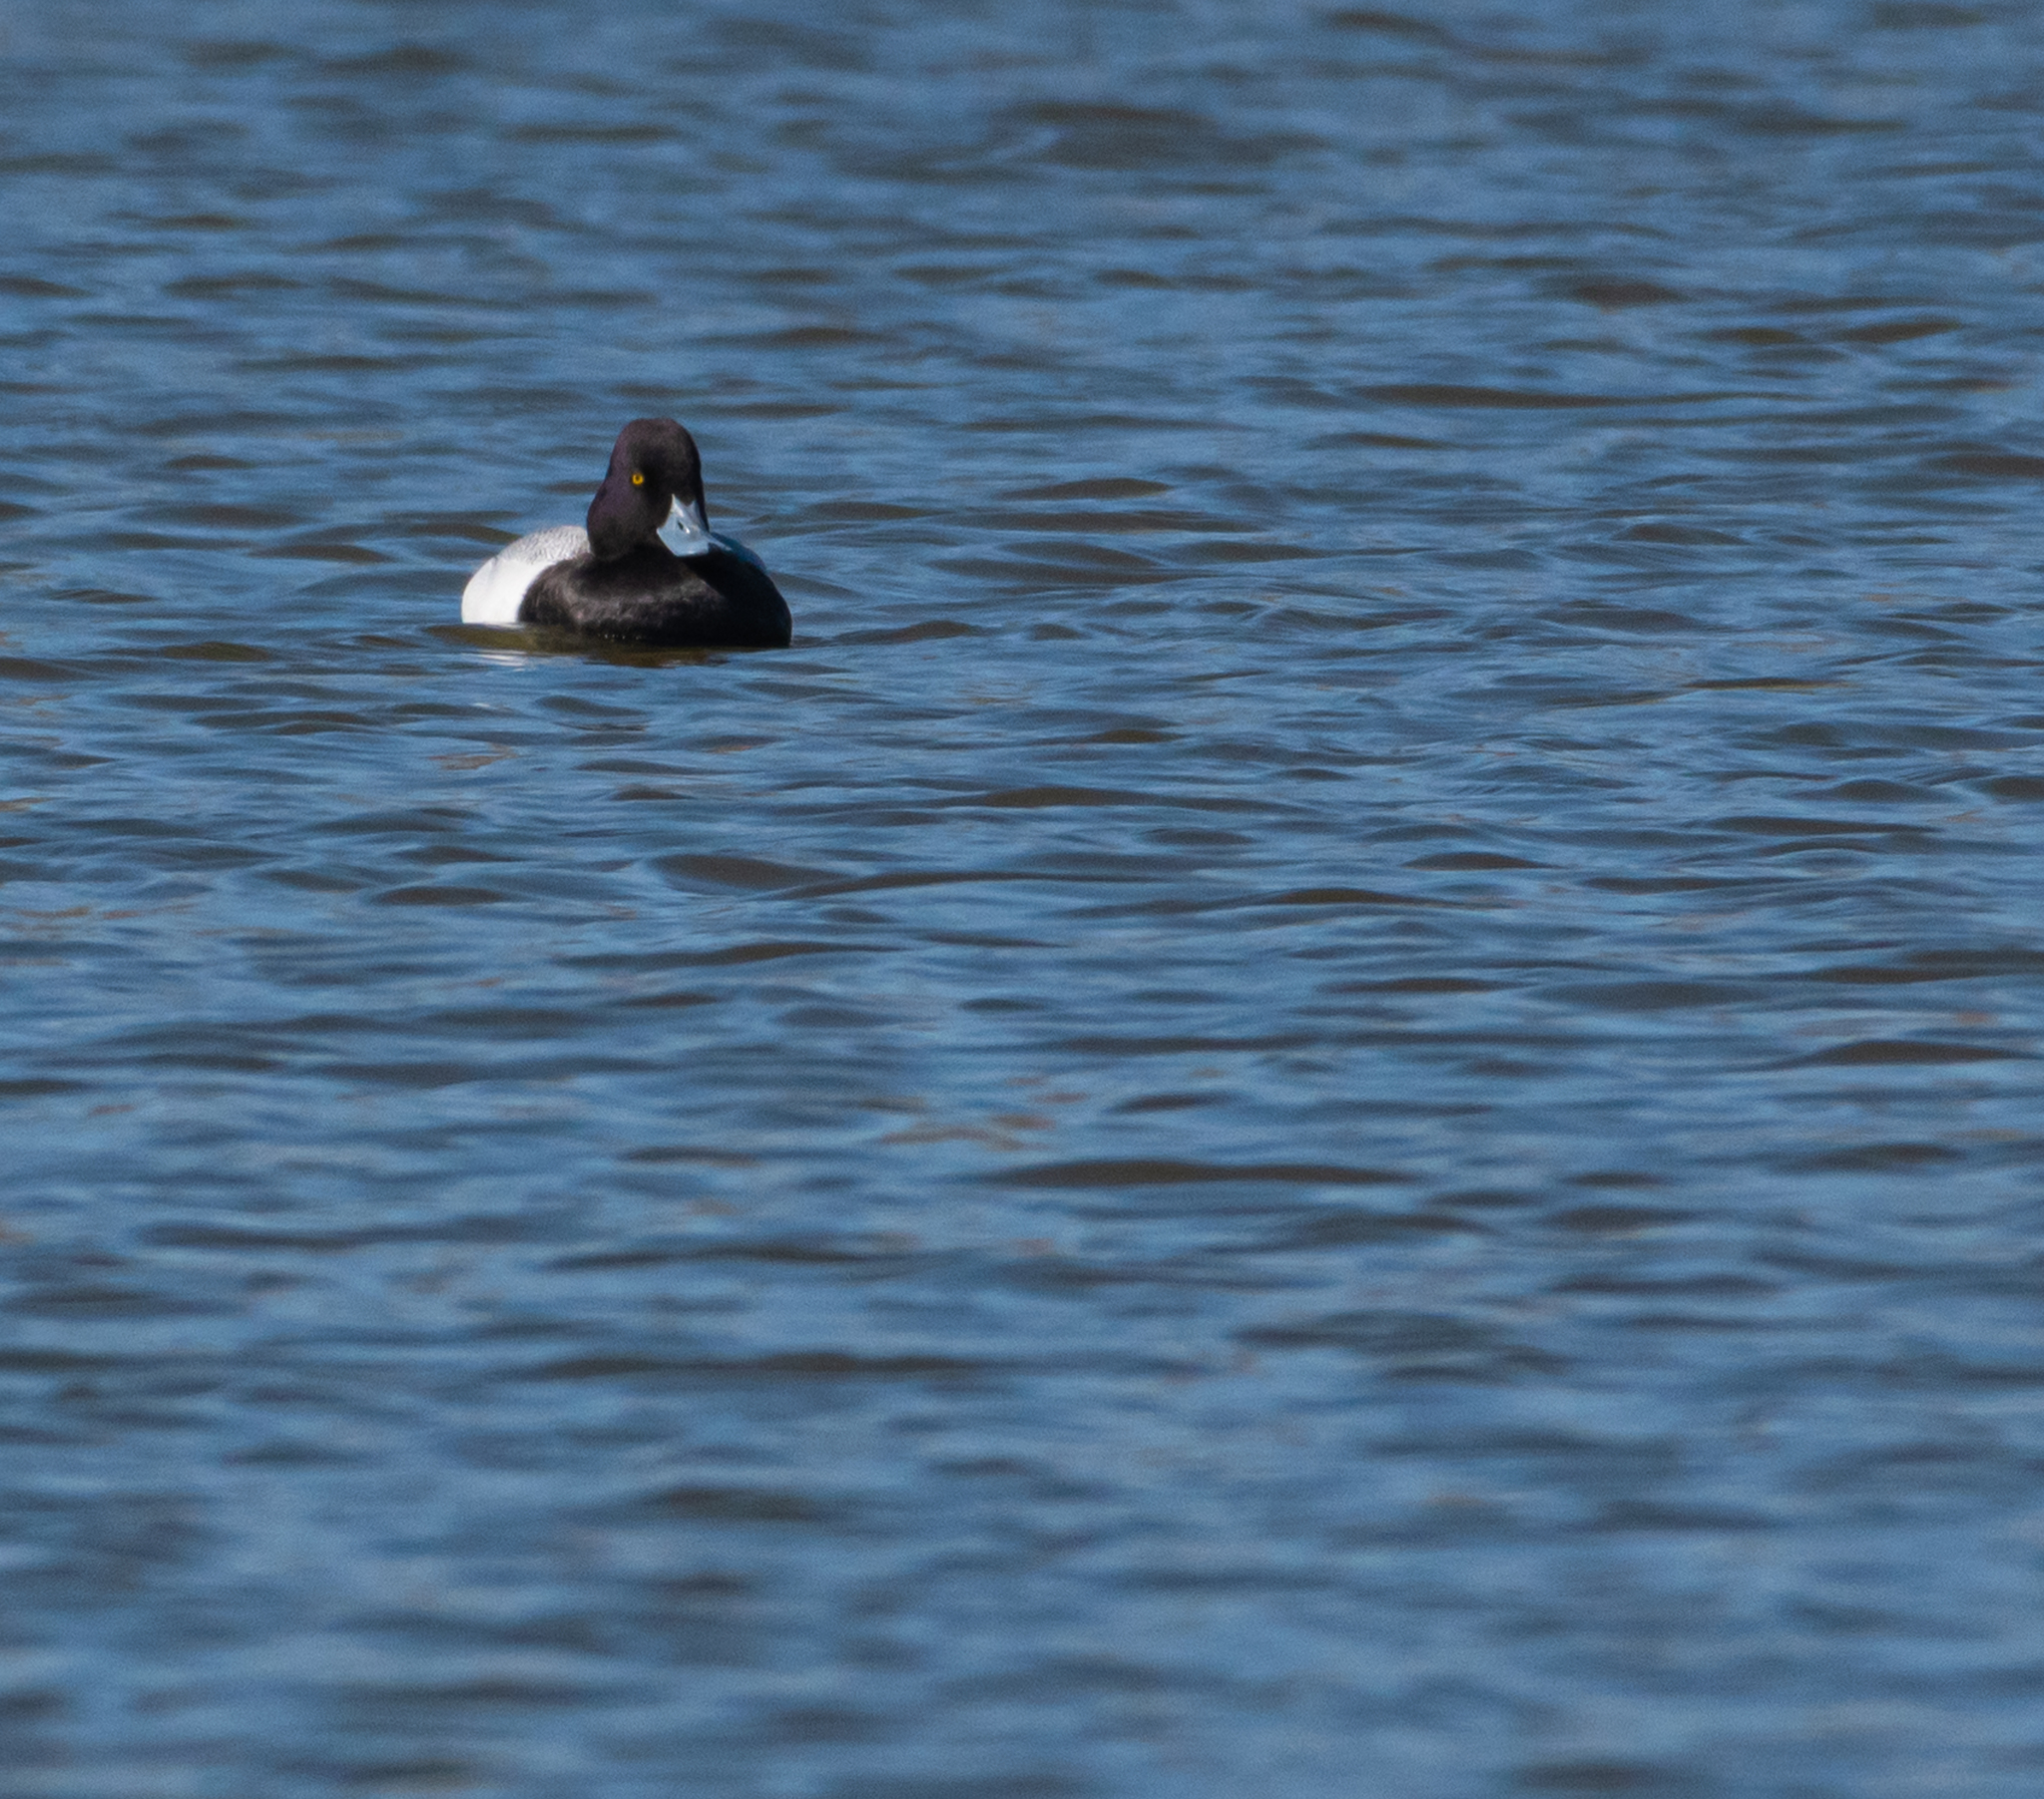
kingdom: Animalia
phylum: Chordata
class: Aves
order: Anseriformes
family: Anatidae
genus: Aythya
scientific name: Aythya affinis
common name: Lesser scaup
